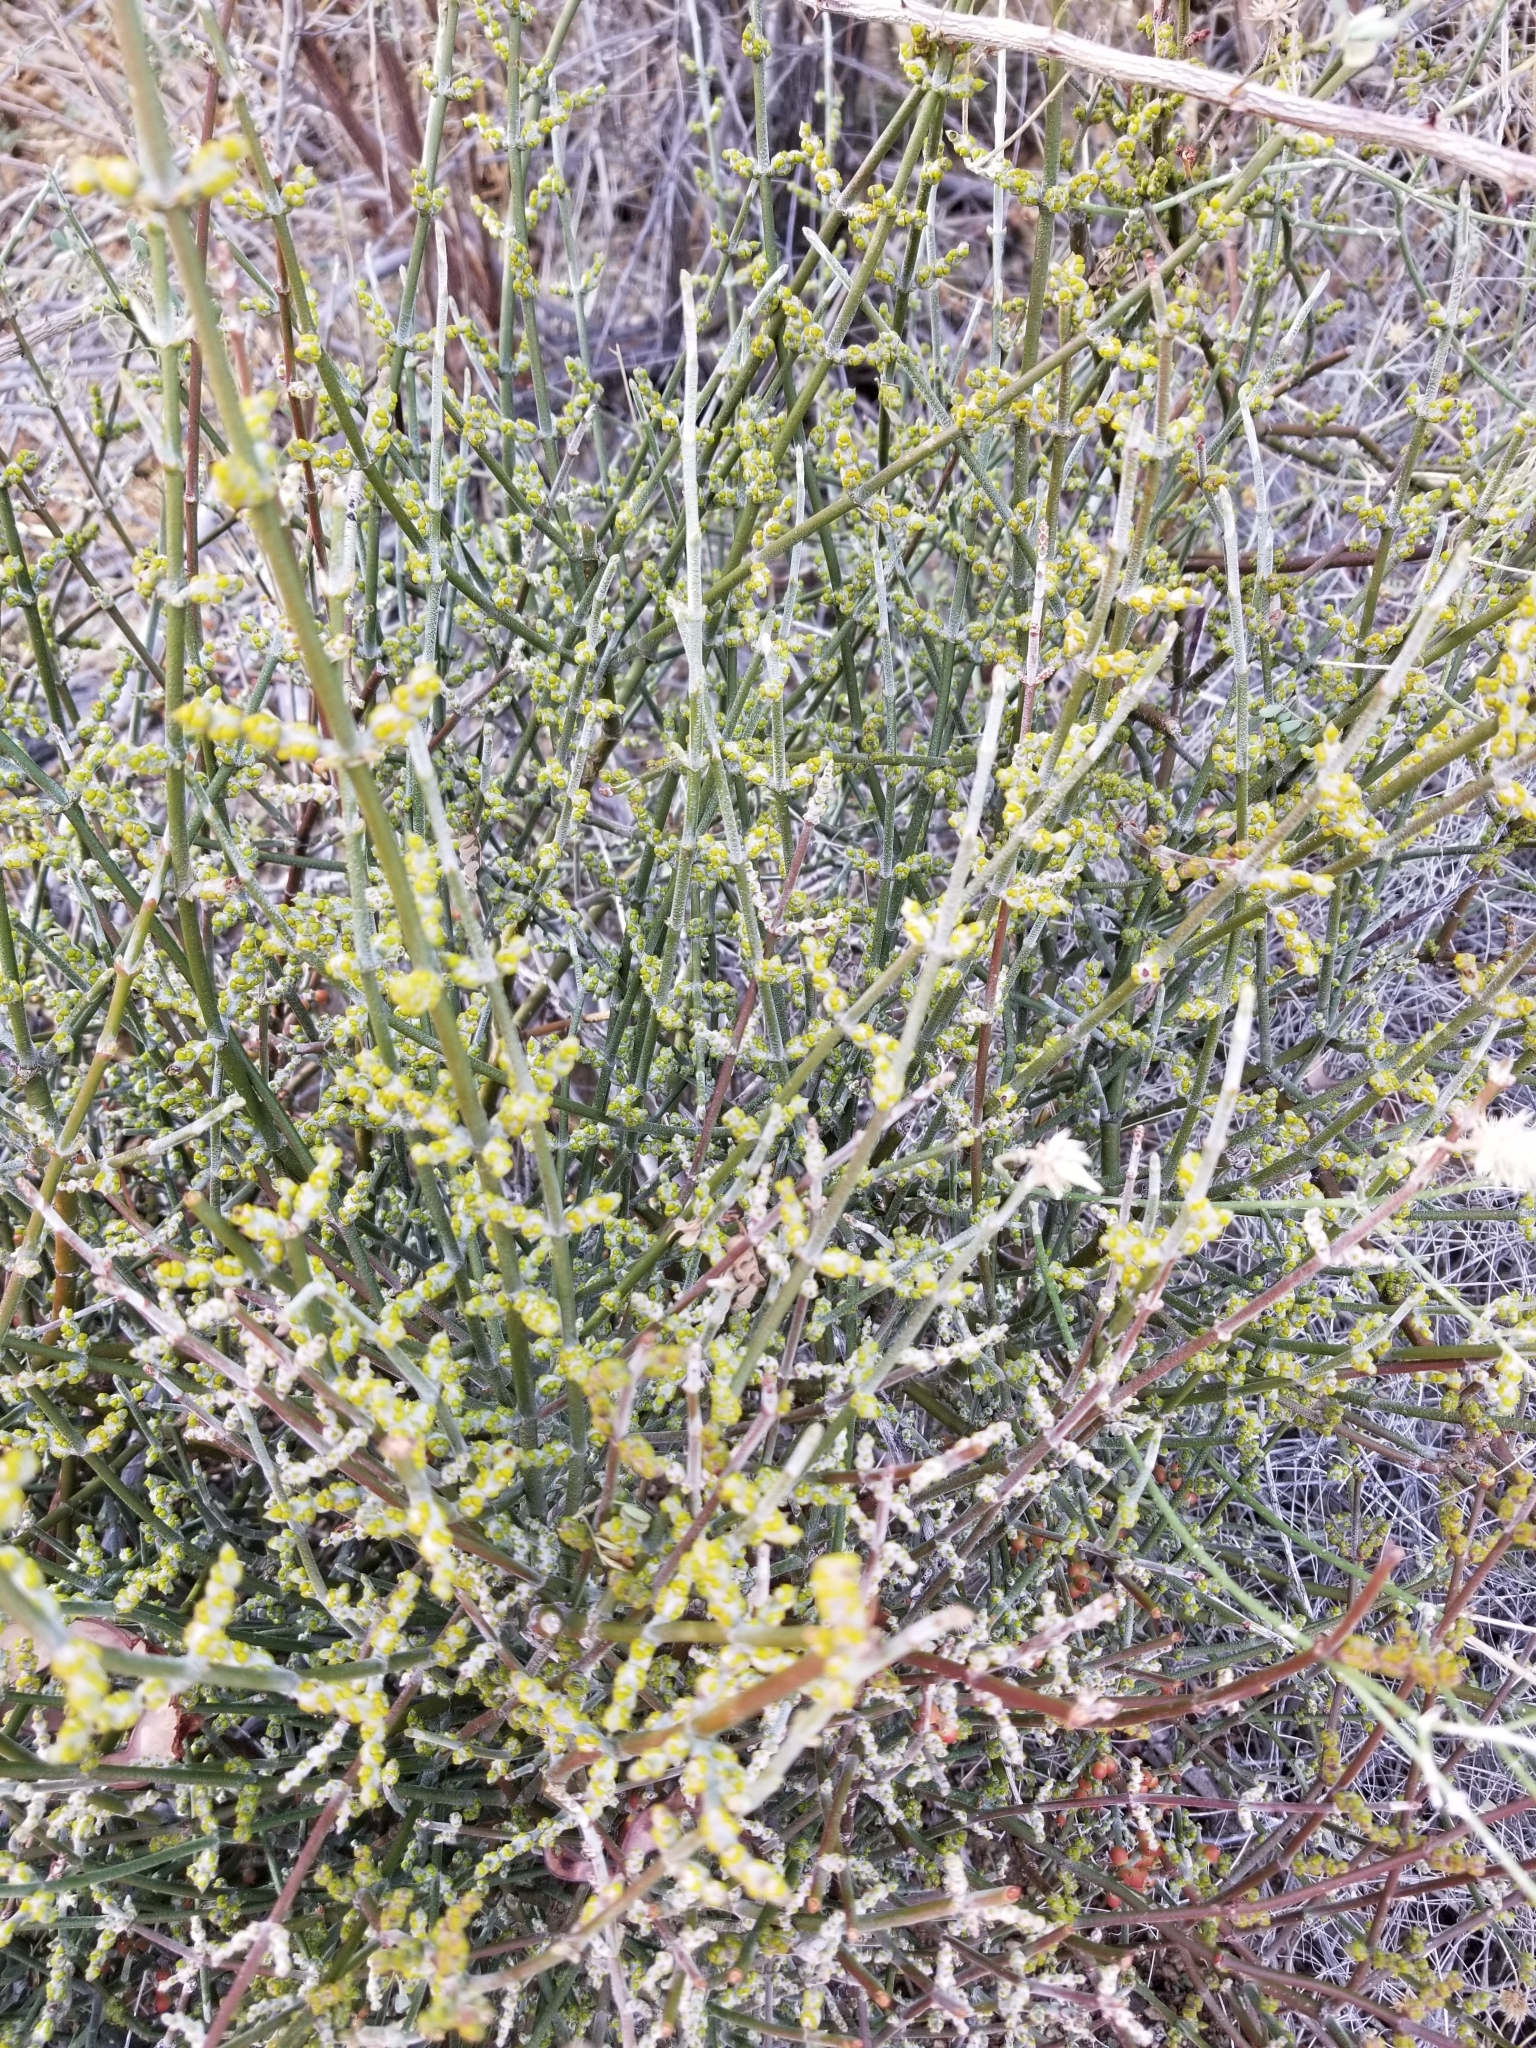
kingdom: Plantae
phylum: Tracheophyta
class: Magnoliopsida
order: Santalales
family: Viscaceae
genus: Phoradendron
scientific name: Phoradendron californicum
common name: Acacia mistletoe
